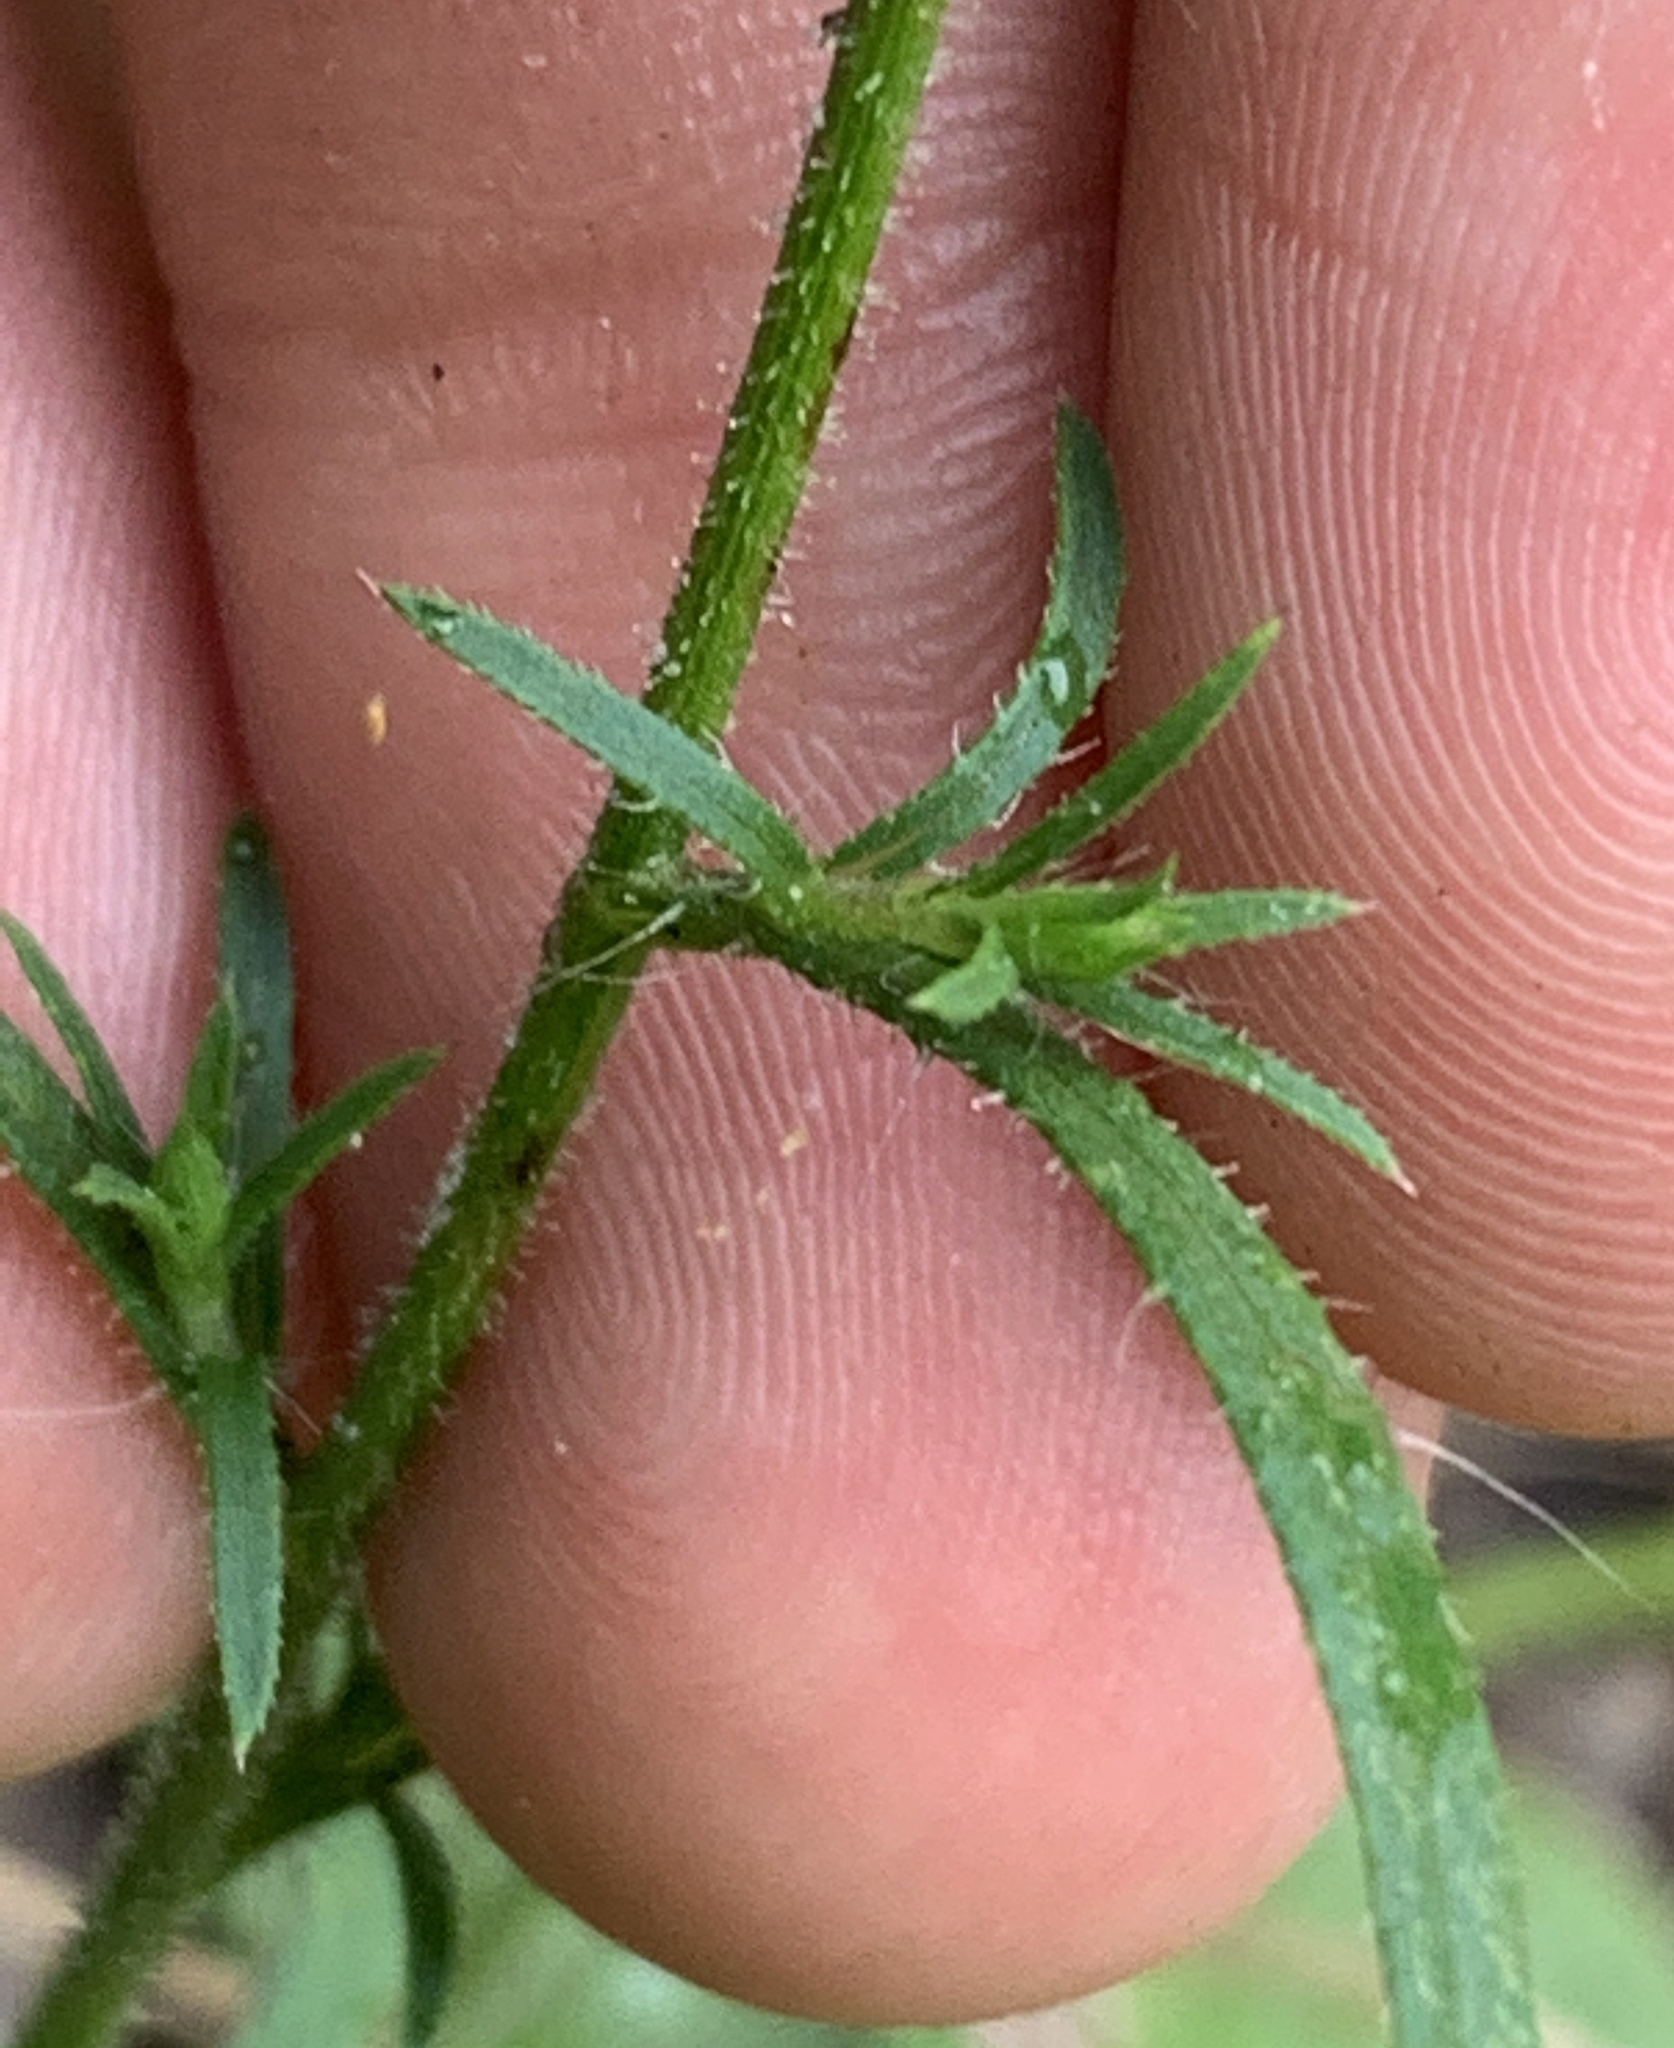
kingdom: Plantae
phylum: Tracheophyta
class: Magnoliopsida
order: Asterales
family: Asteraceae
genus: Croptilon
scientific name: Croptilon divaricatum
